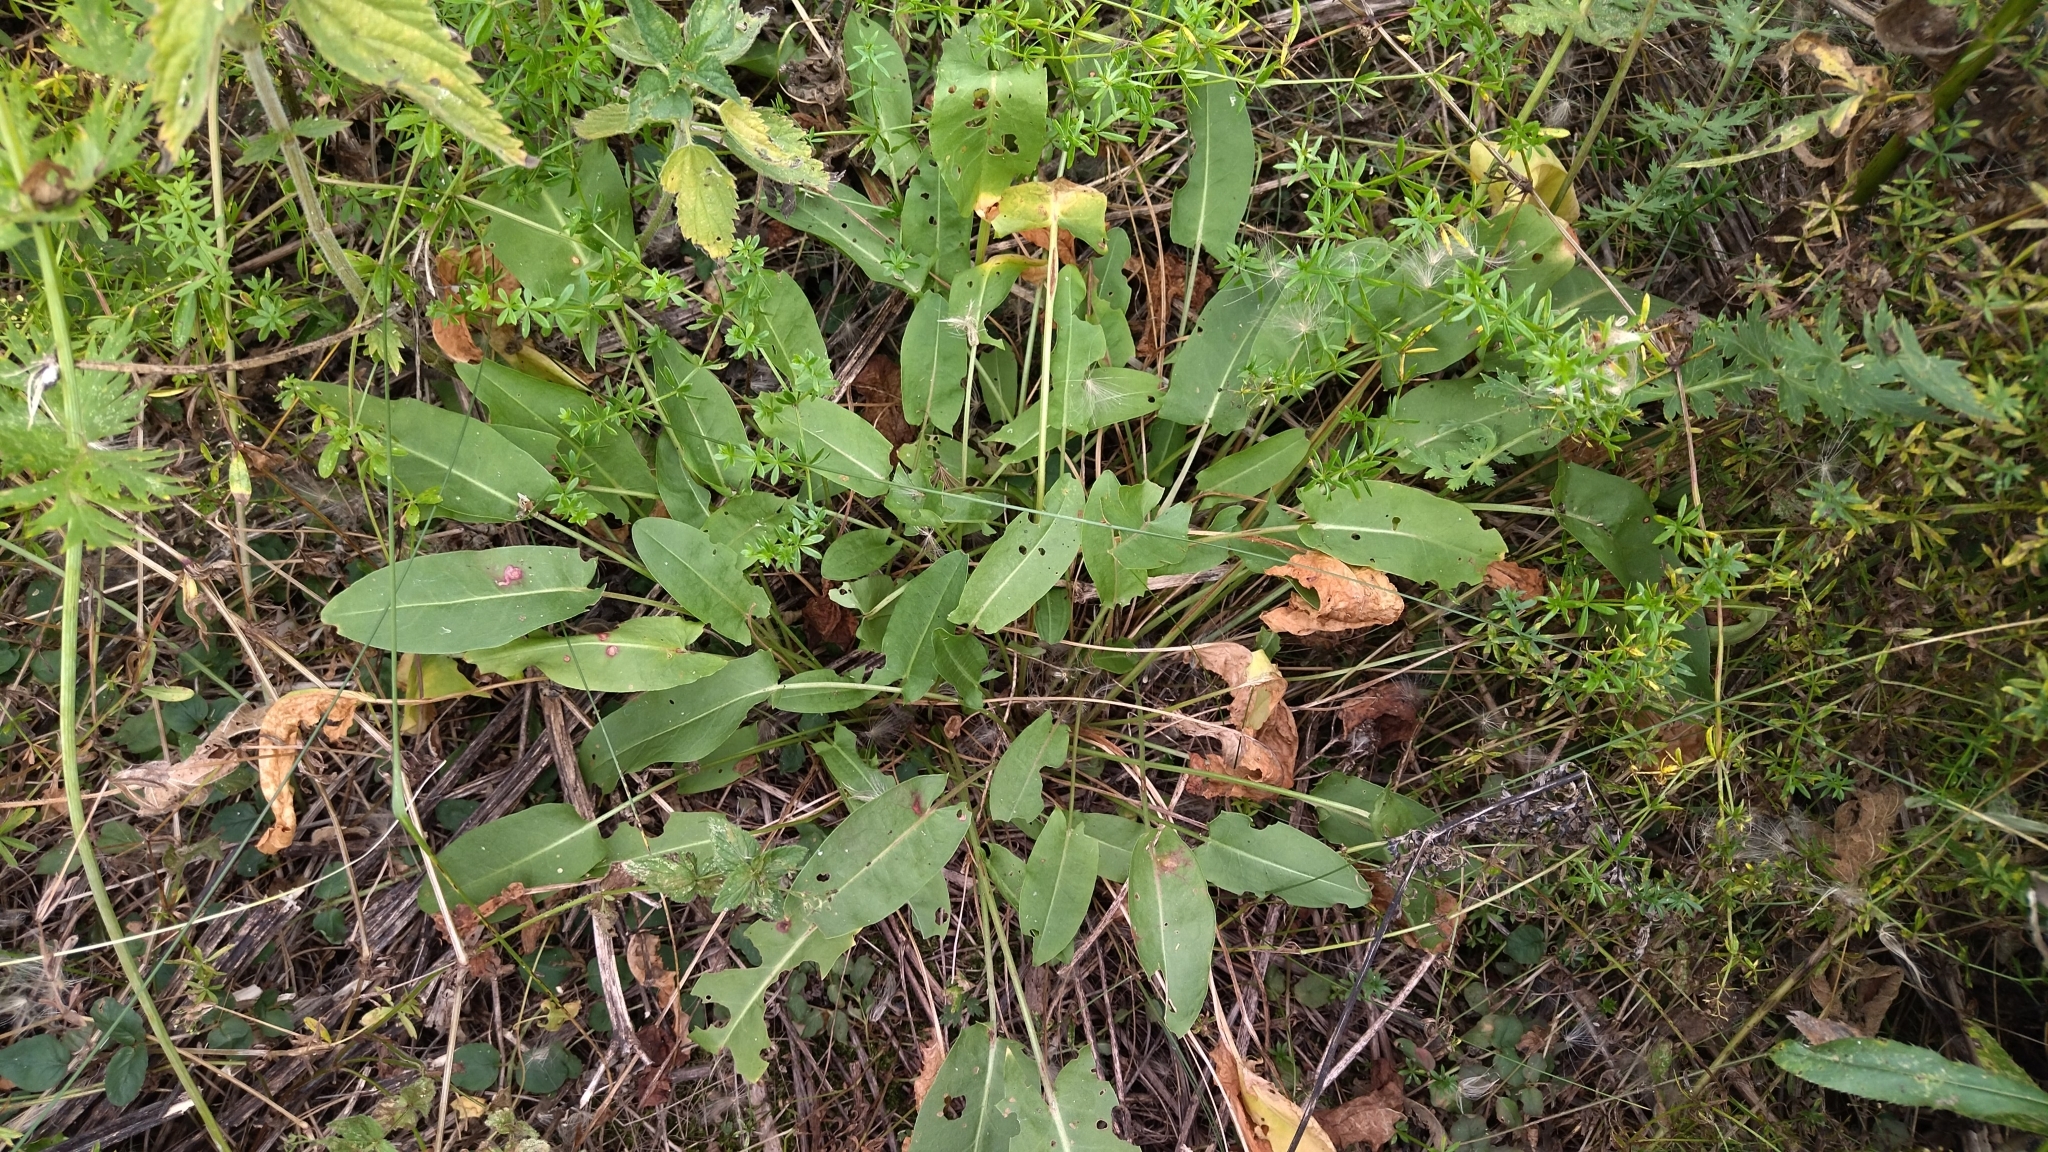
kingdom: Plantae
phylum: Tracheophyta
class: Magnoliopsida
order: Caryophyllales
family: Polygonaceae
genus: Rumex
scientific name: Rumex acetosa
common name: Garden sorrel
